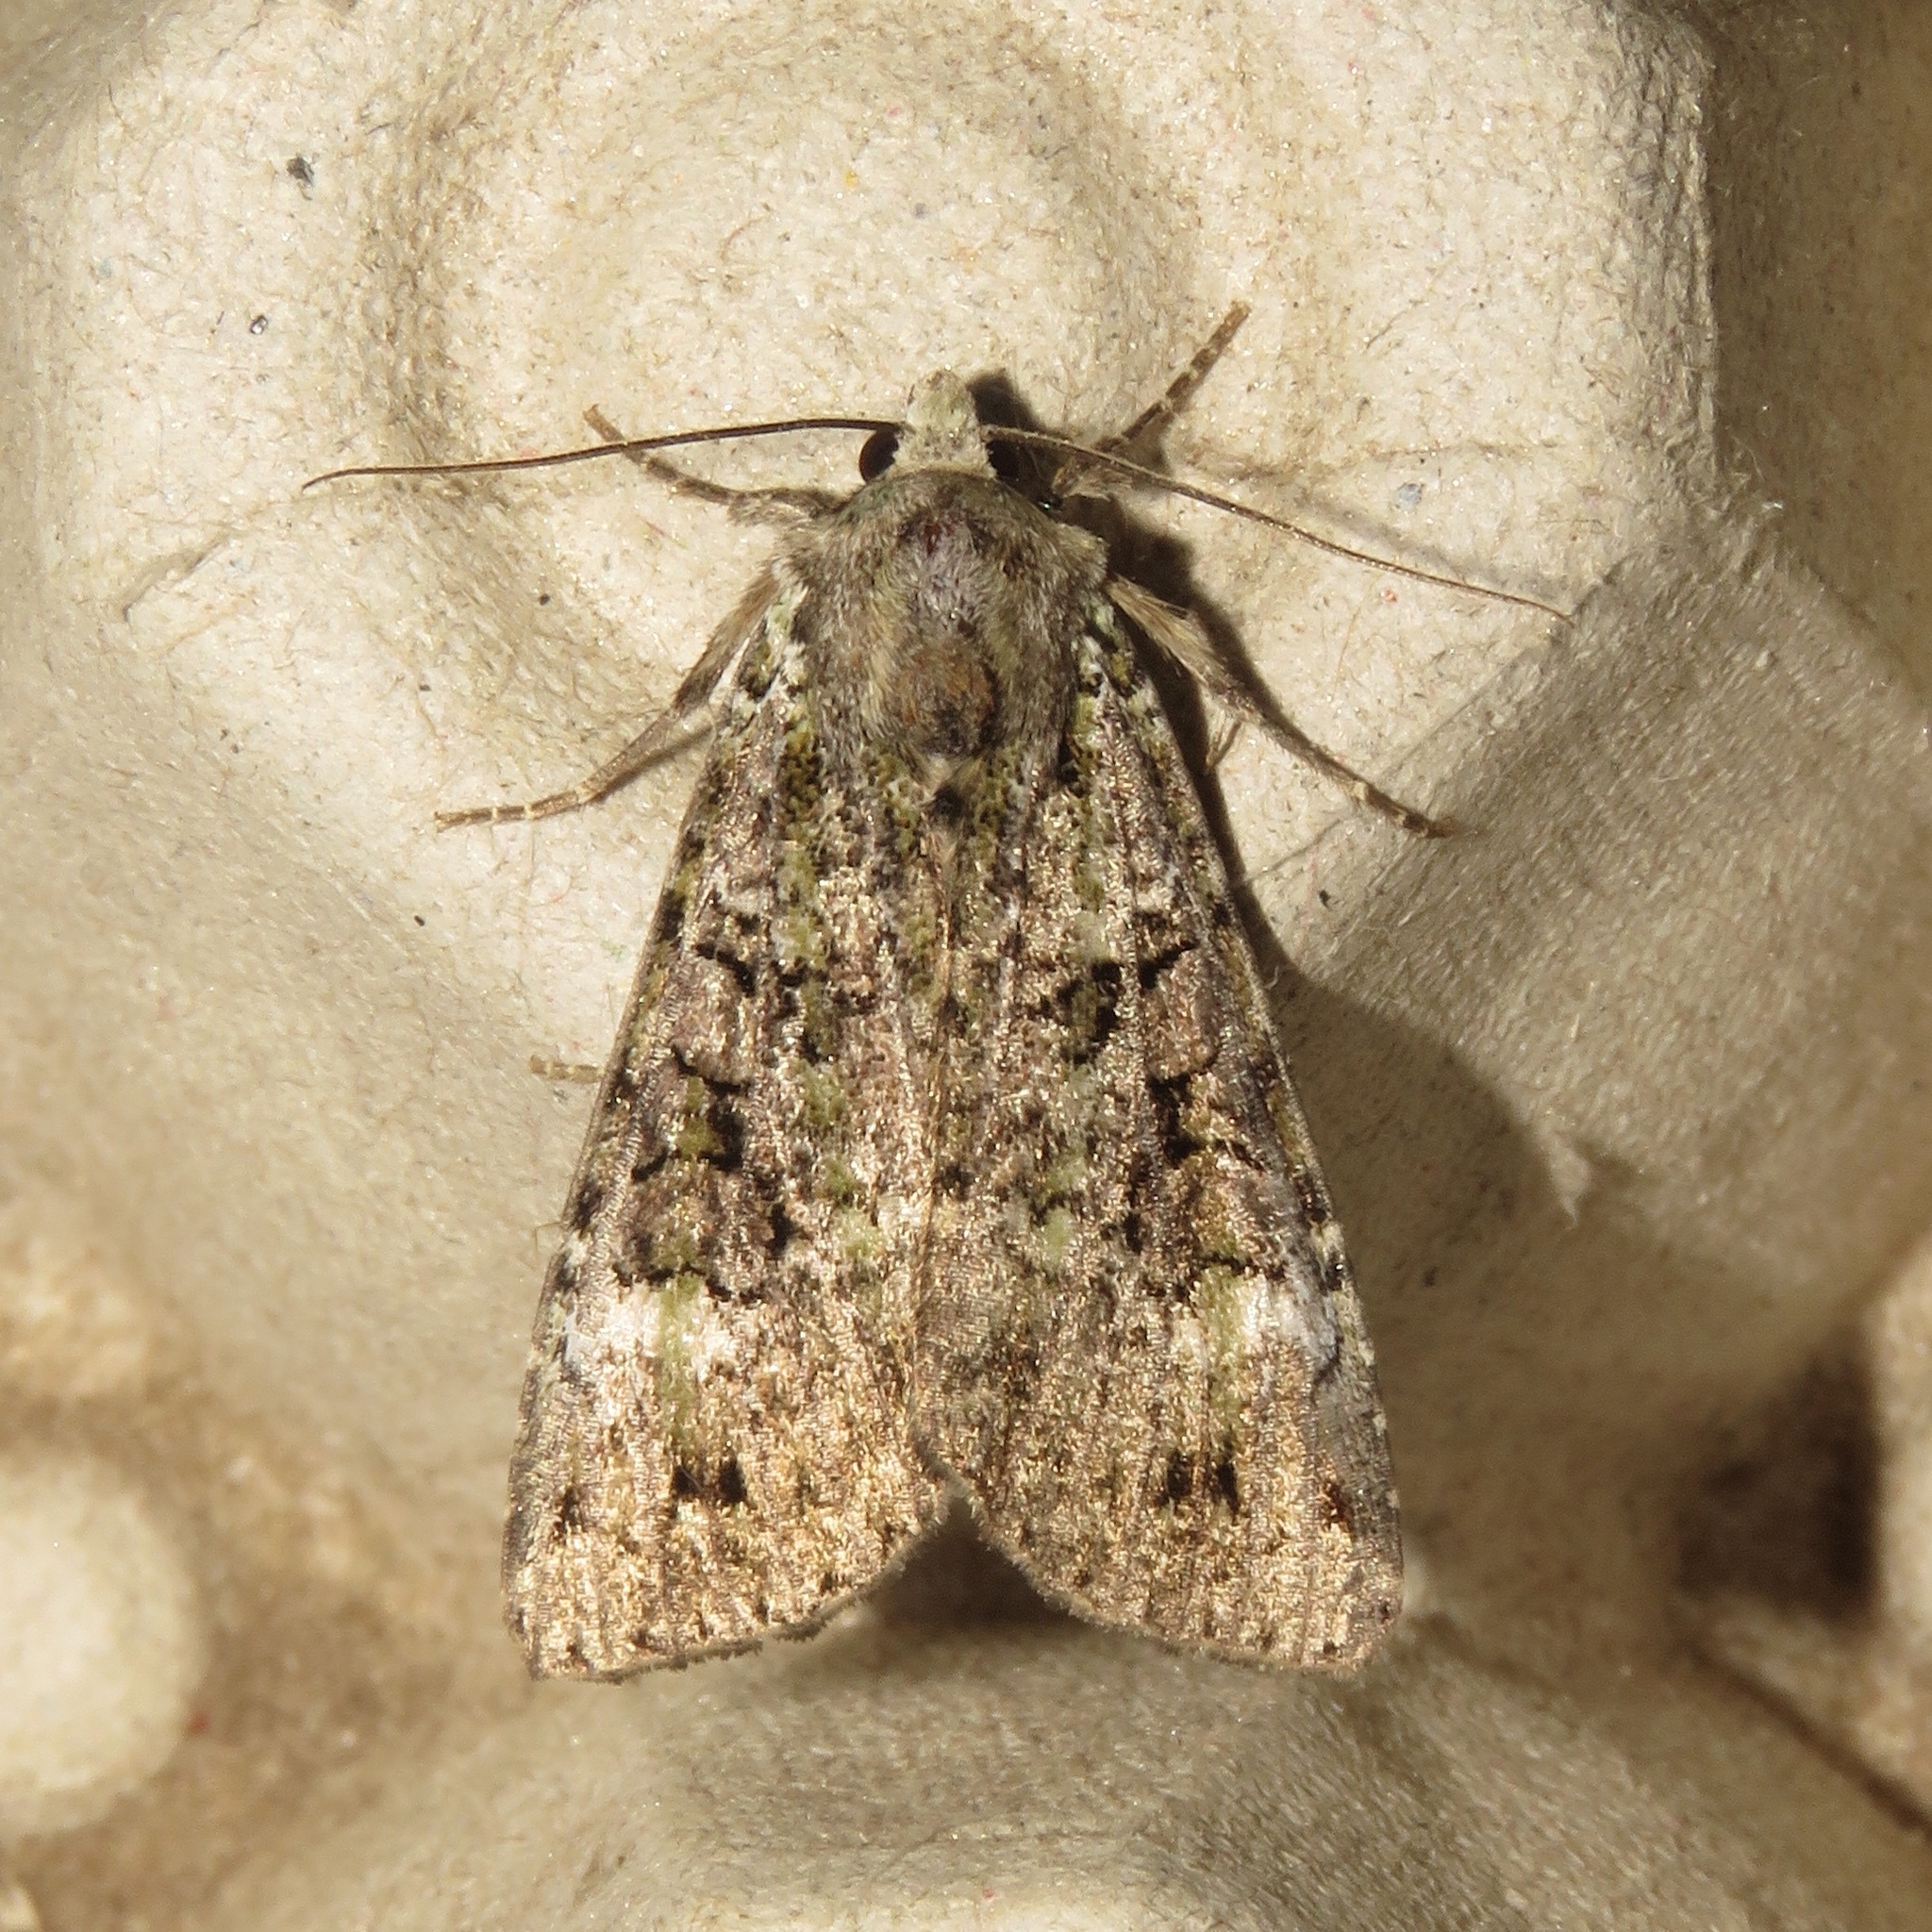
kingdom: Animalia
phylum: Arthropoda
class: Insecta
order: Lepidoptera
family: Noctuidae
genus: Anaplectoides
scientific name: Anaplectoides prasina
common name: Green arches
